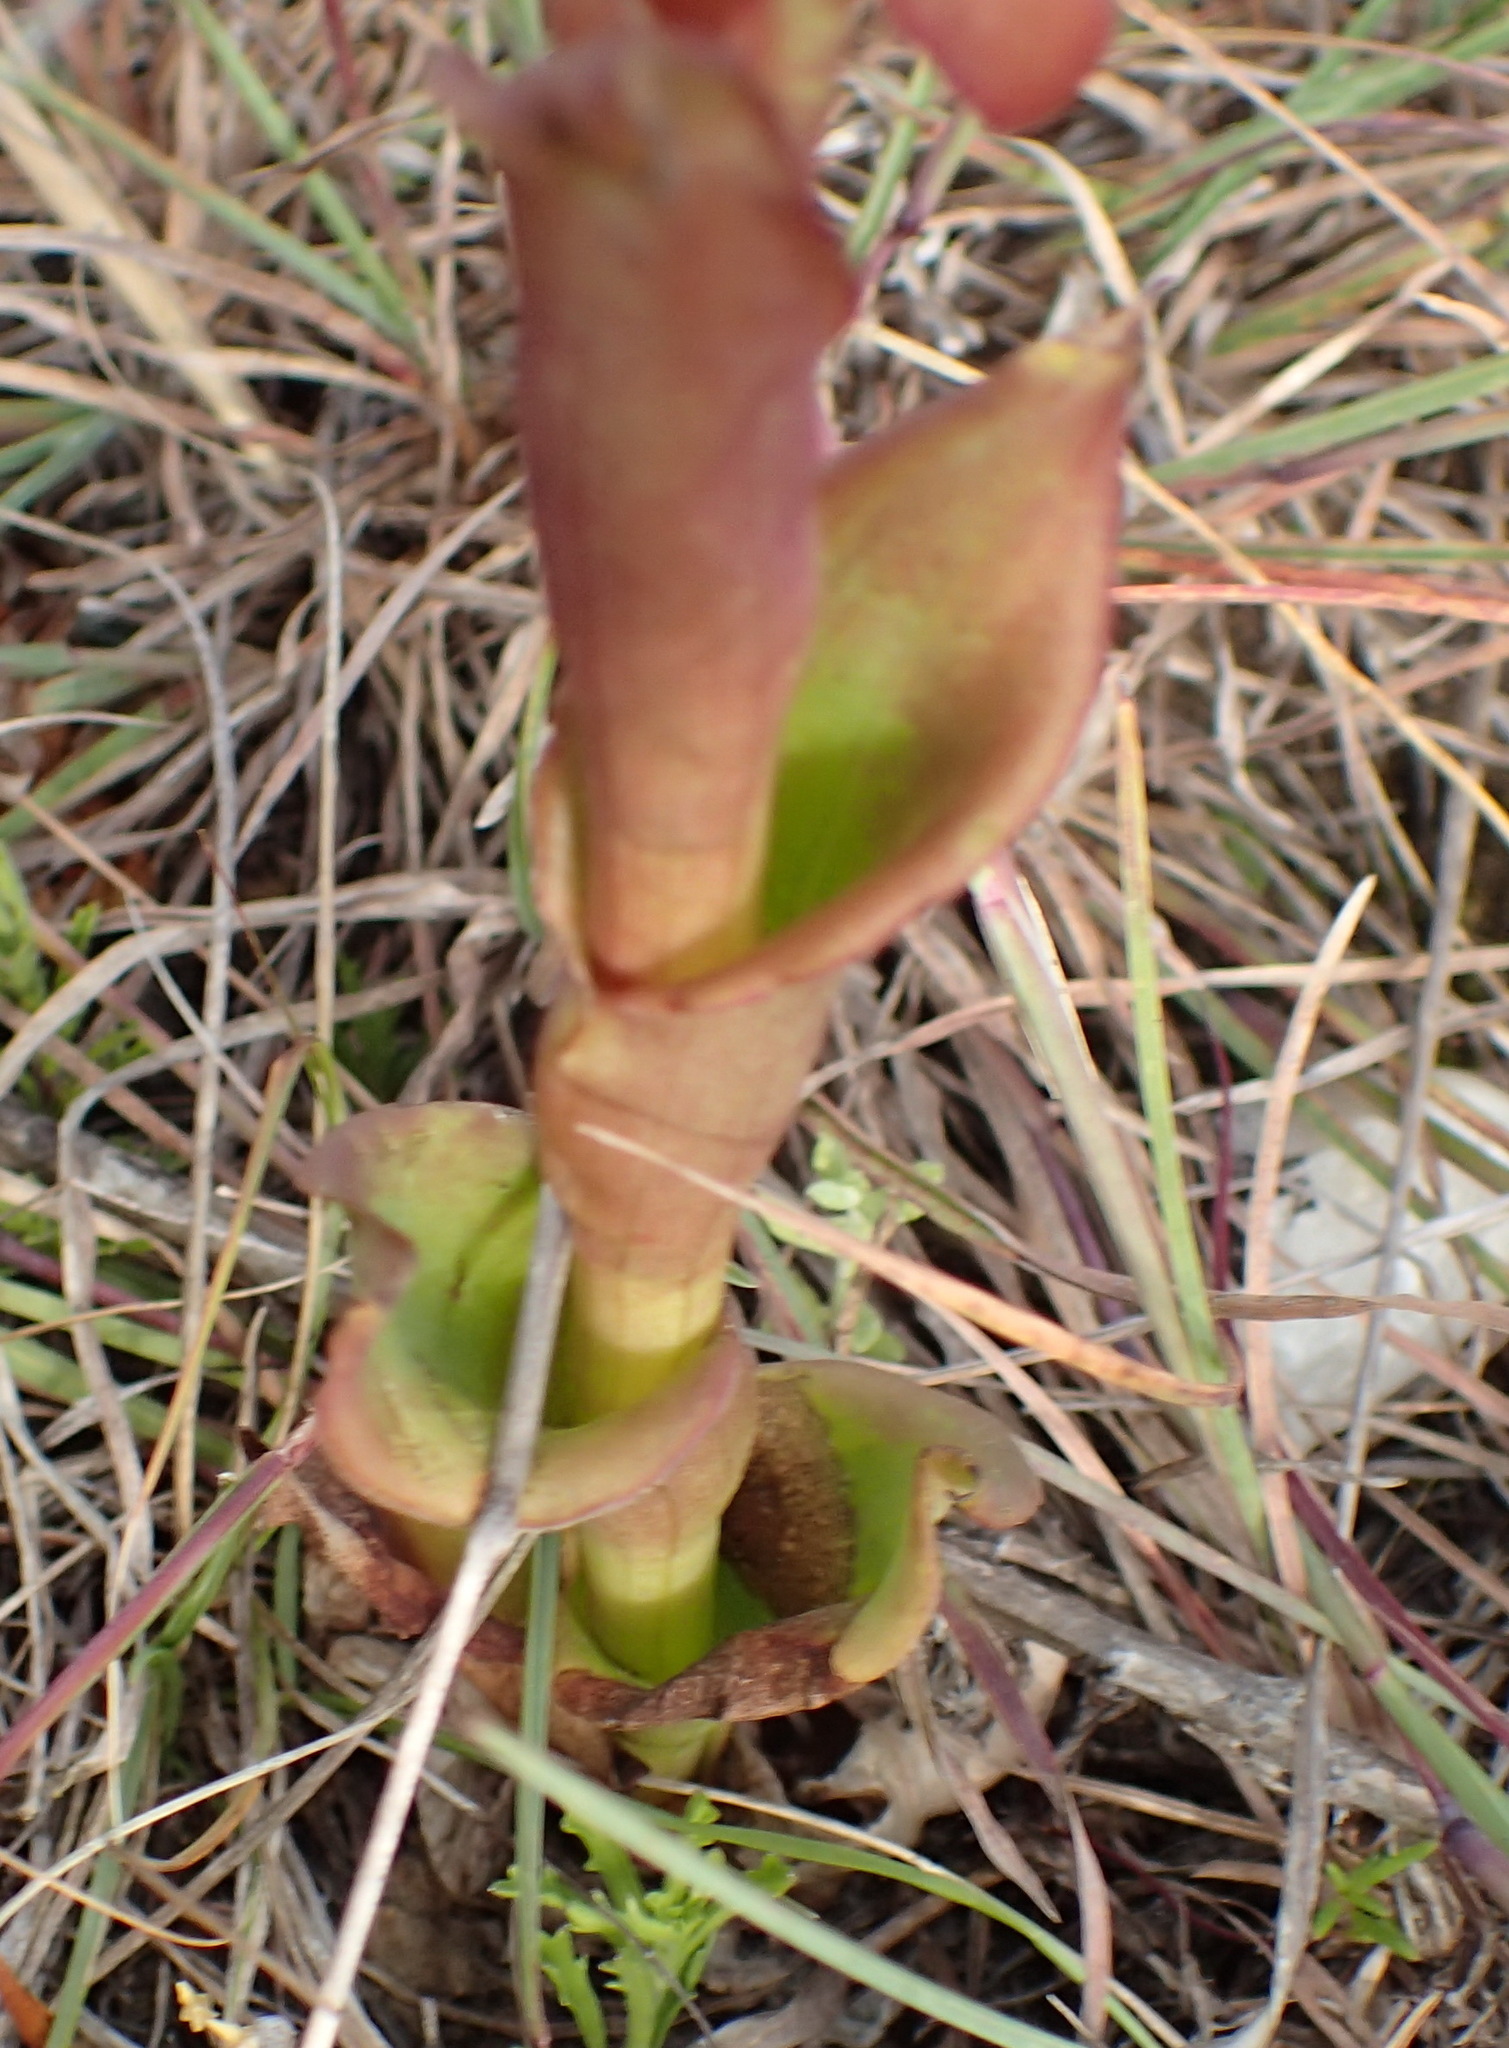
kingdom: Plantae
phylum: Tracheophyta
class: Liliopsida
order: Asparagales
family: Orchidaceae
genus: Satyrium
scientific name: Satyrium acuminatum
